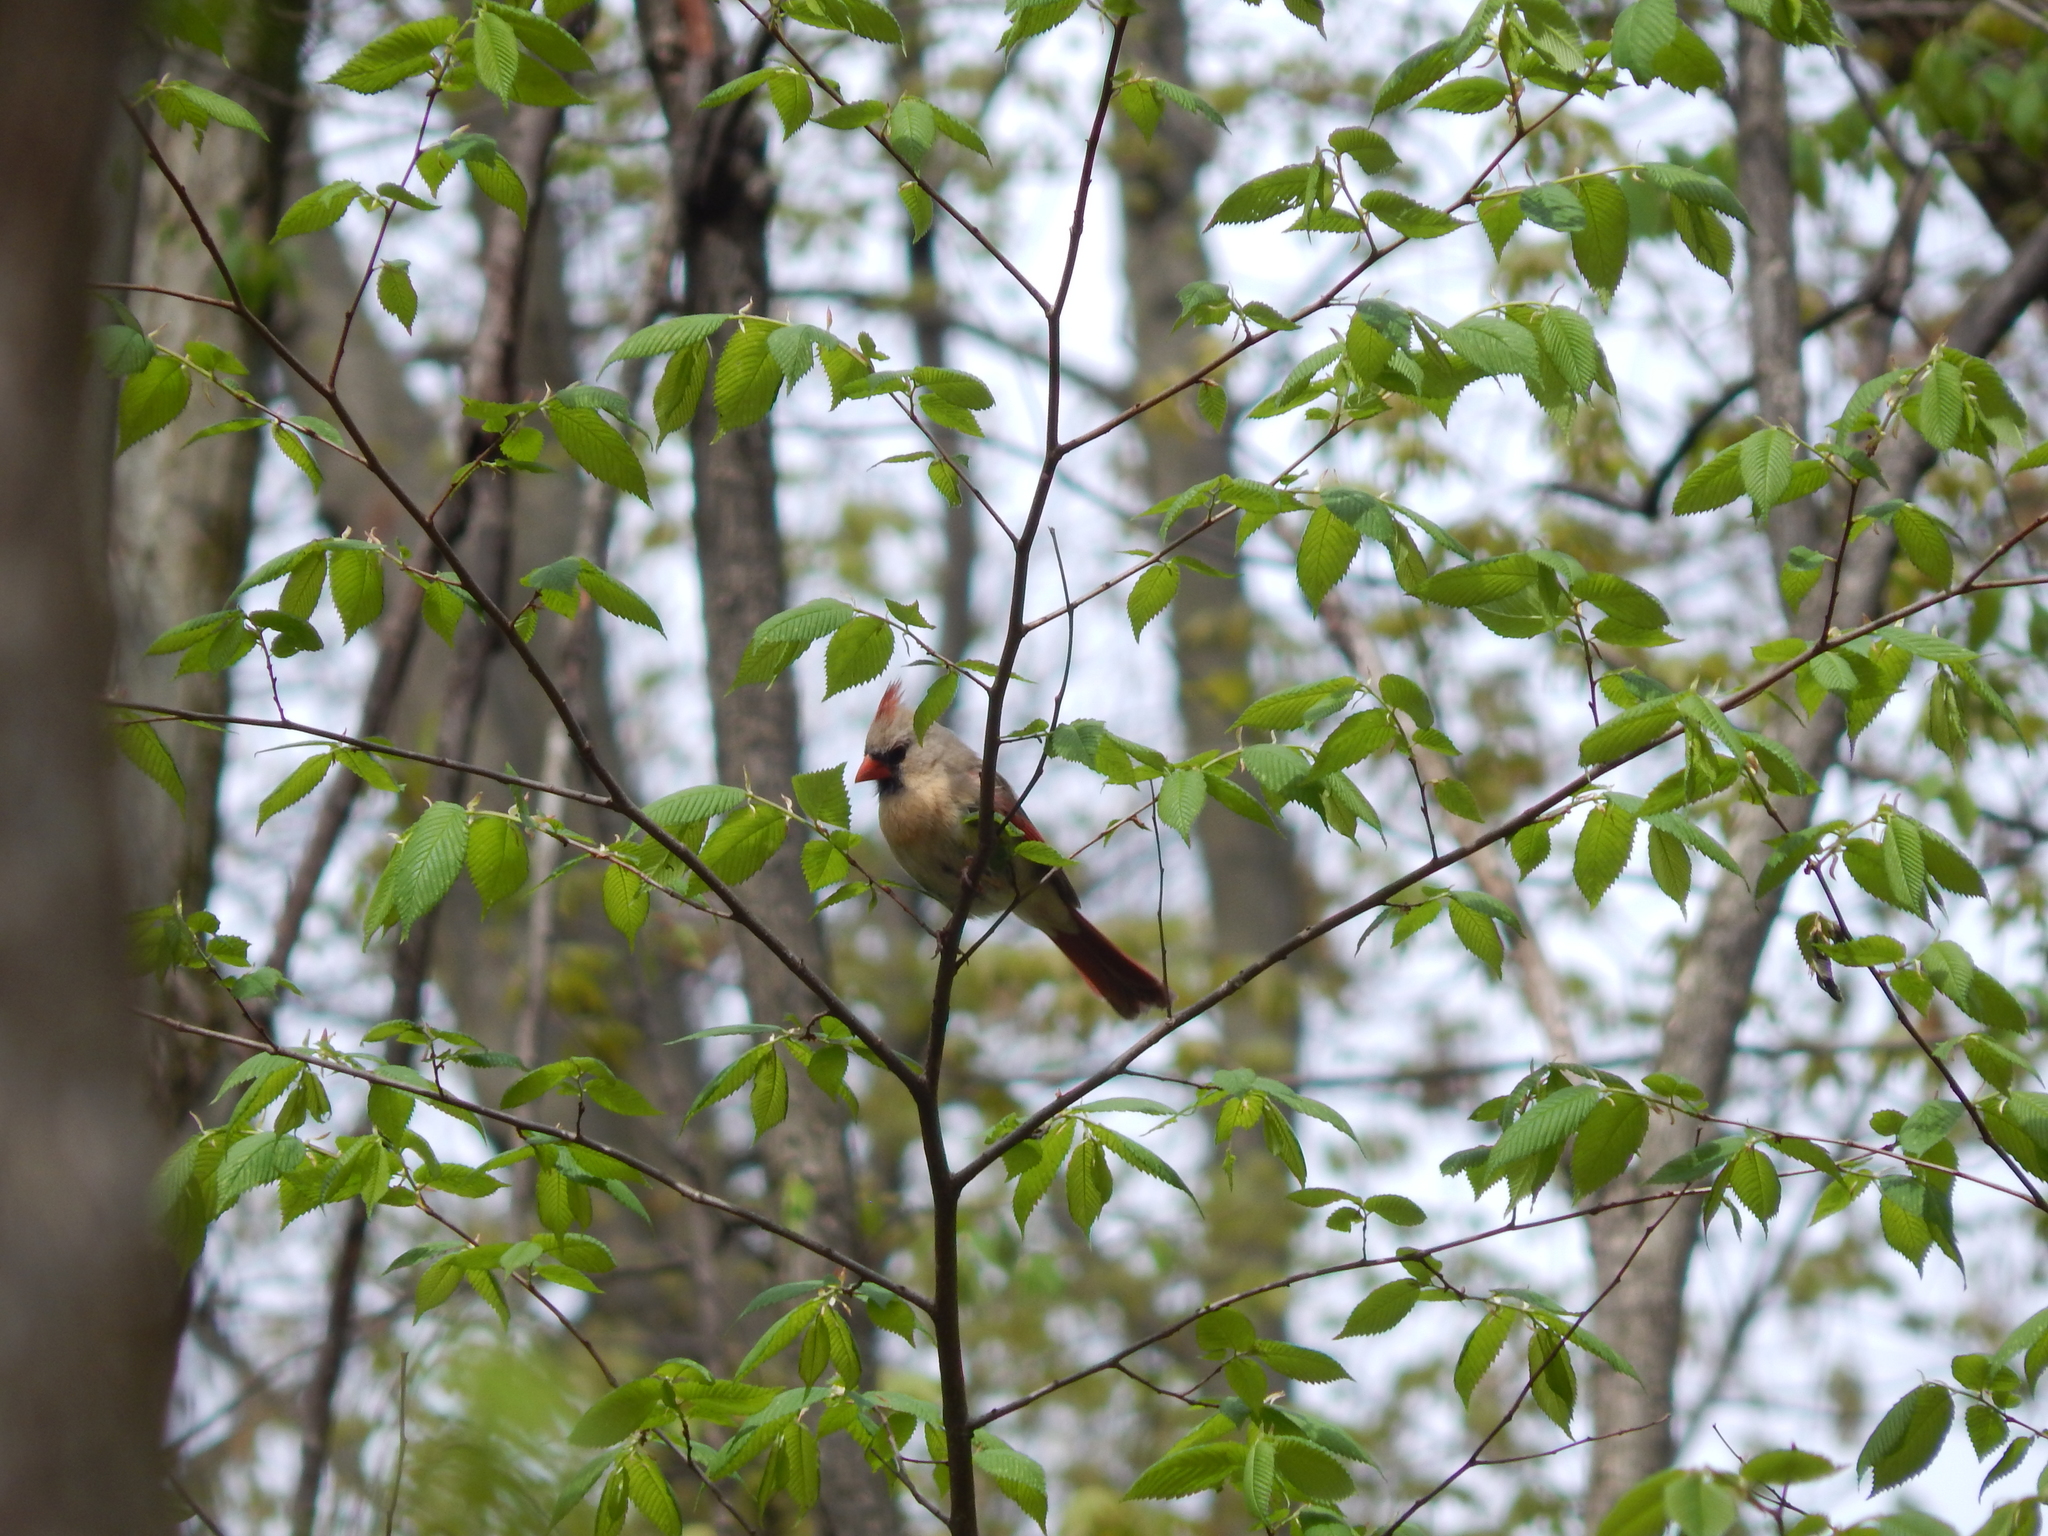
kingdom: Animalia
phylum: Chordata
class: Aves
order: Passeriformes
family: Cardinalidae
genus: Cardinalis
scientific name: Cardinalis cardinalis
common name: Northern cardinal
